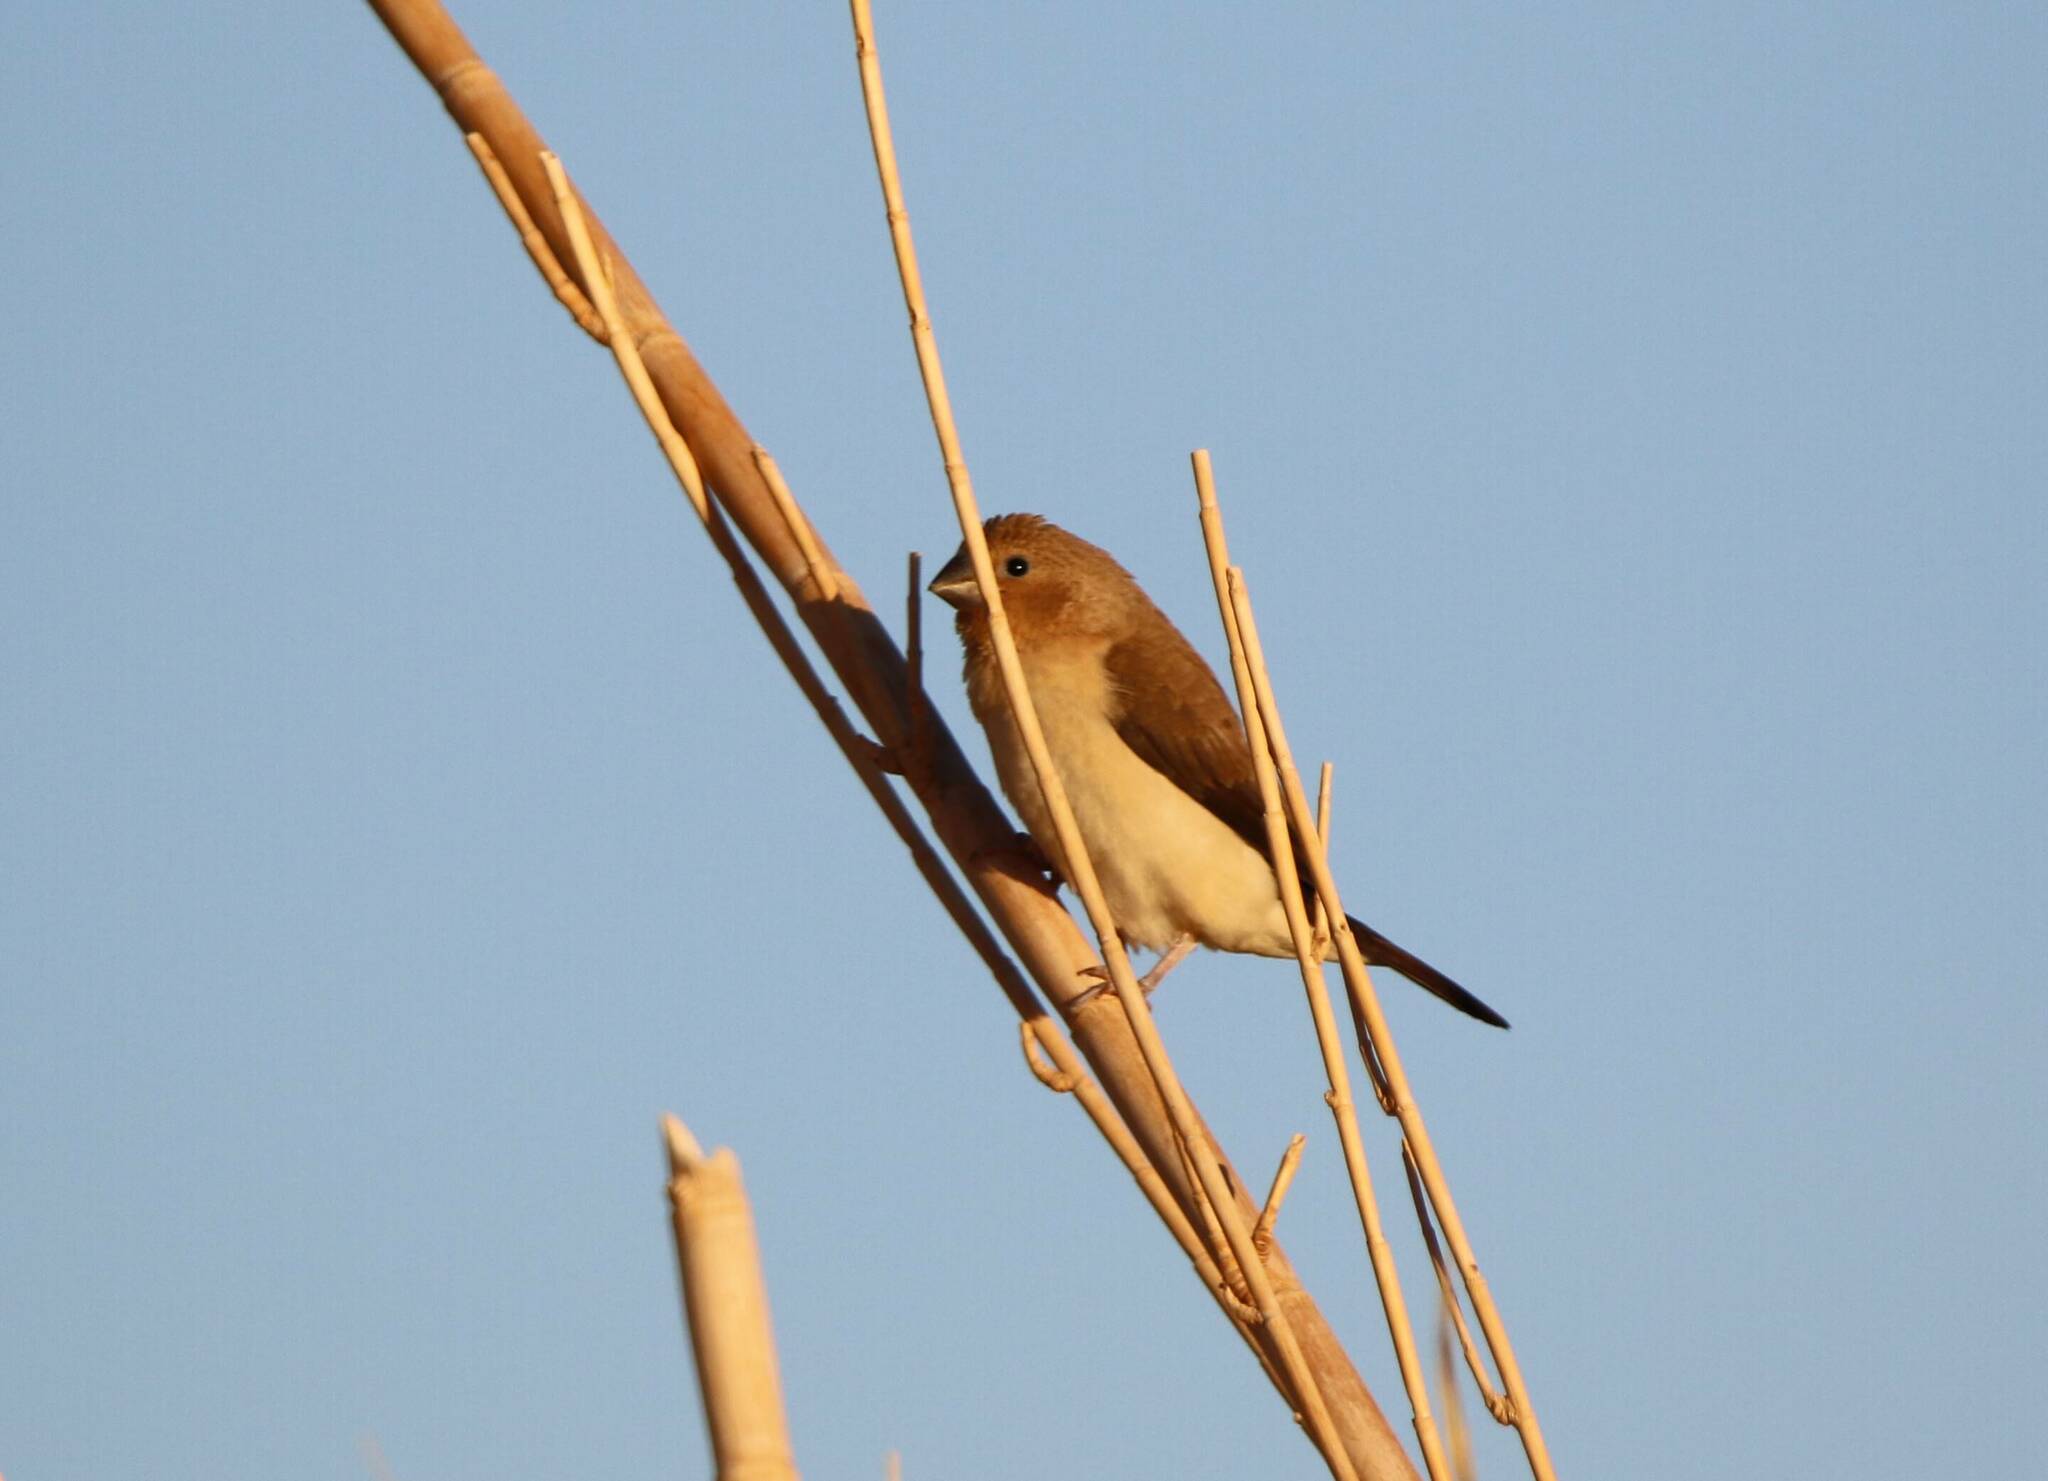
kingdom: Animalia
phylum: Chordata
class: Aves
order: Passeriformes
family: Estrildidae
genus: Euodice
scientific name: Euodice cantans
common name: African silverbill
